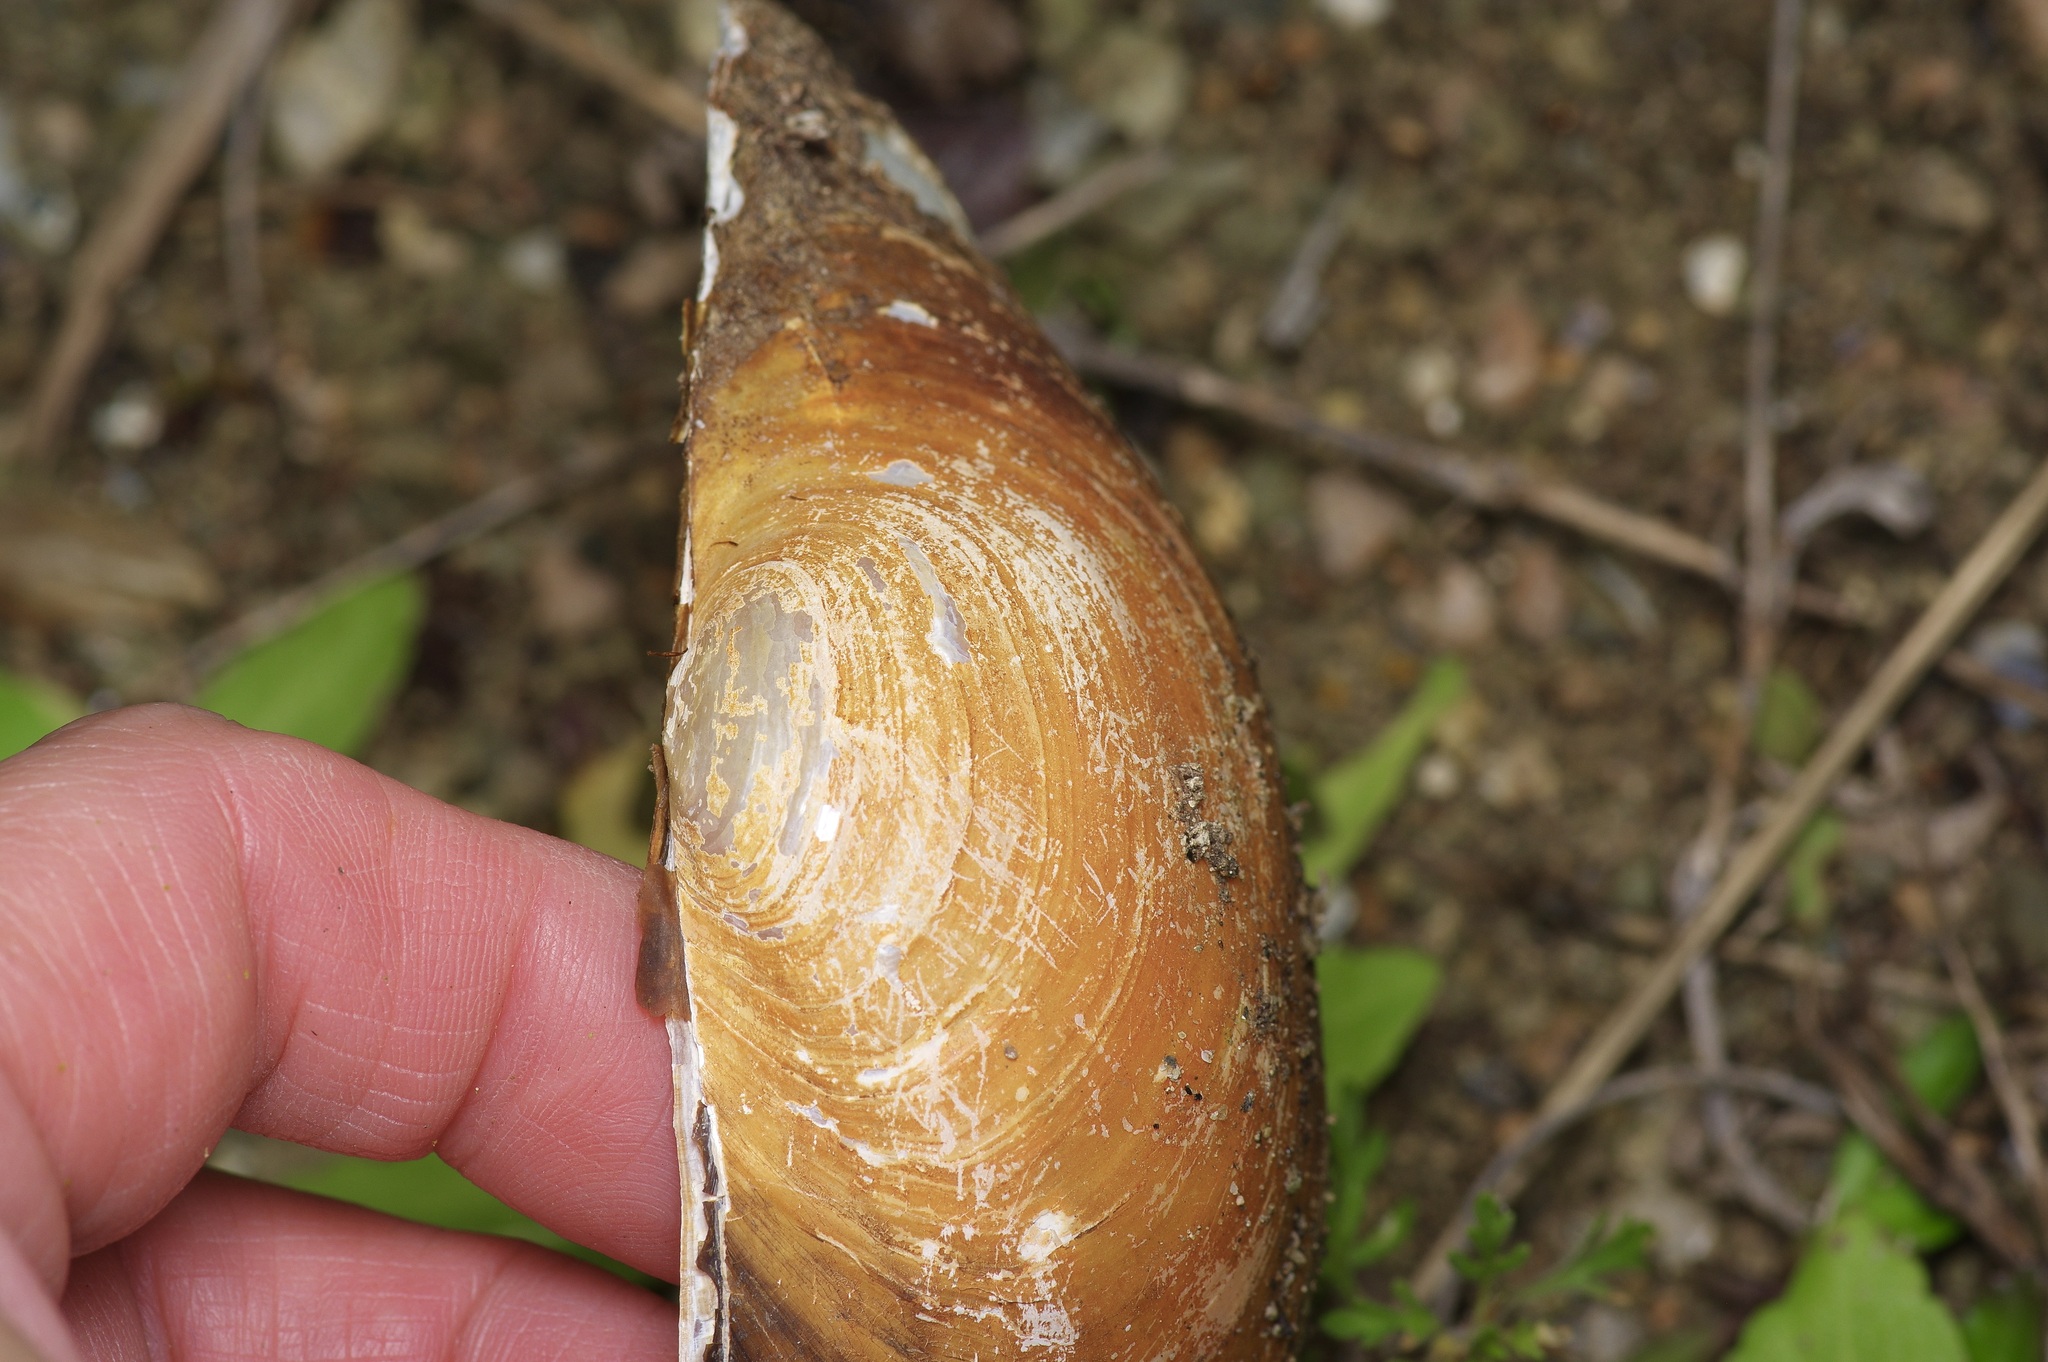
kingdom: Animalia
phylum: Mollusca
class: Bivalvia
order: Unionida
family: Unionidae
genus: Pyganodon
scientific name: Pyganodon grandis
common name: Giant floater
